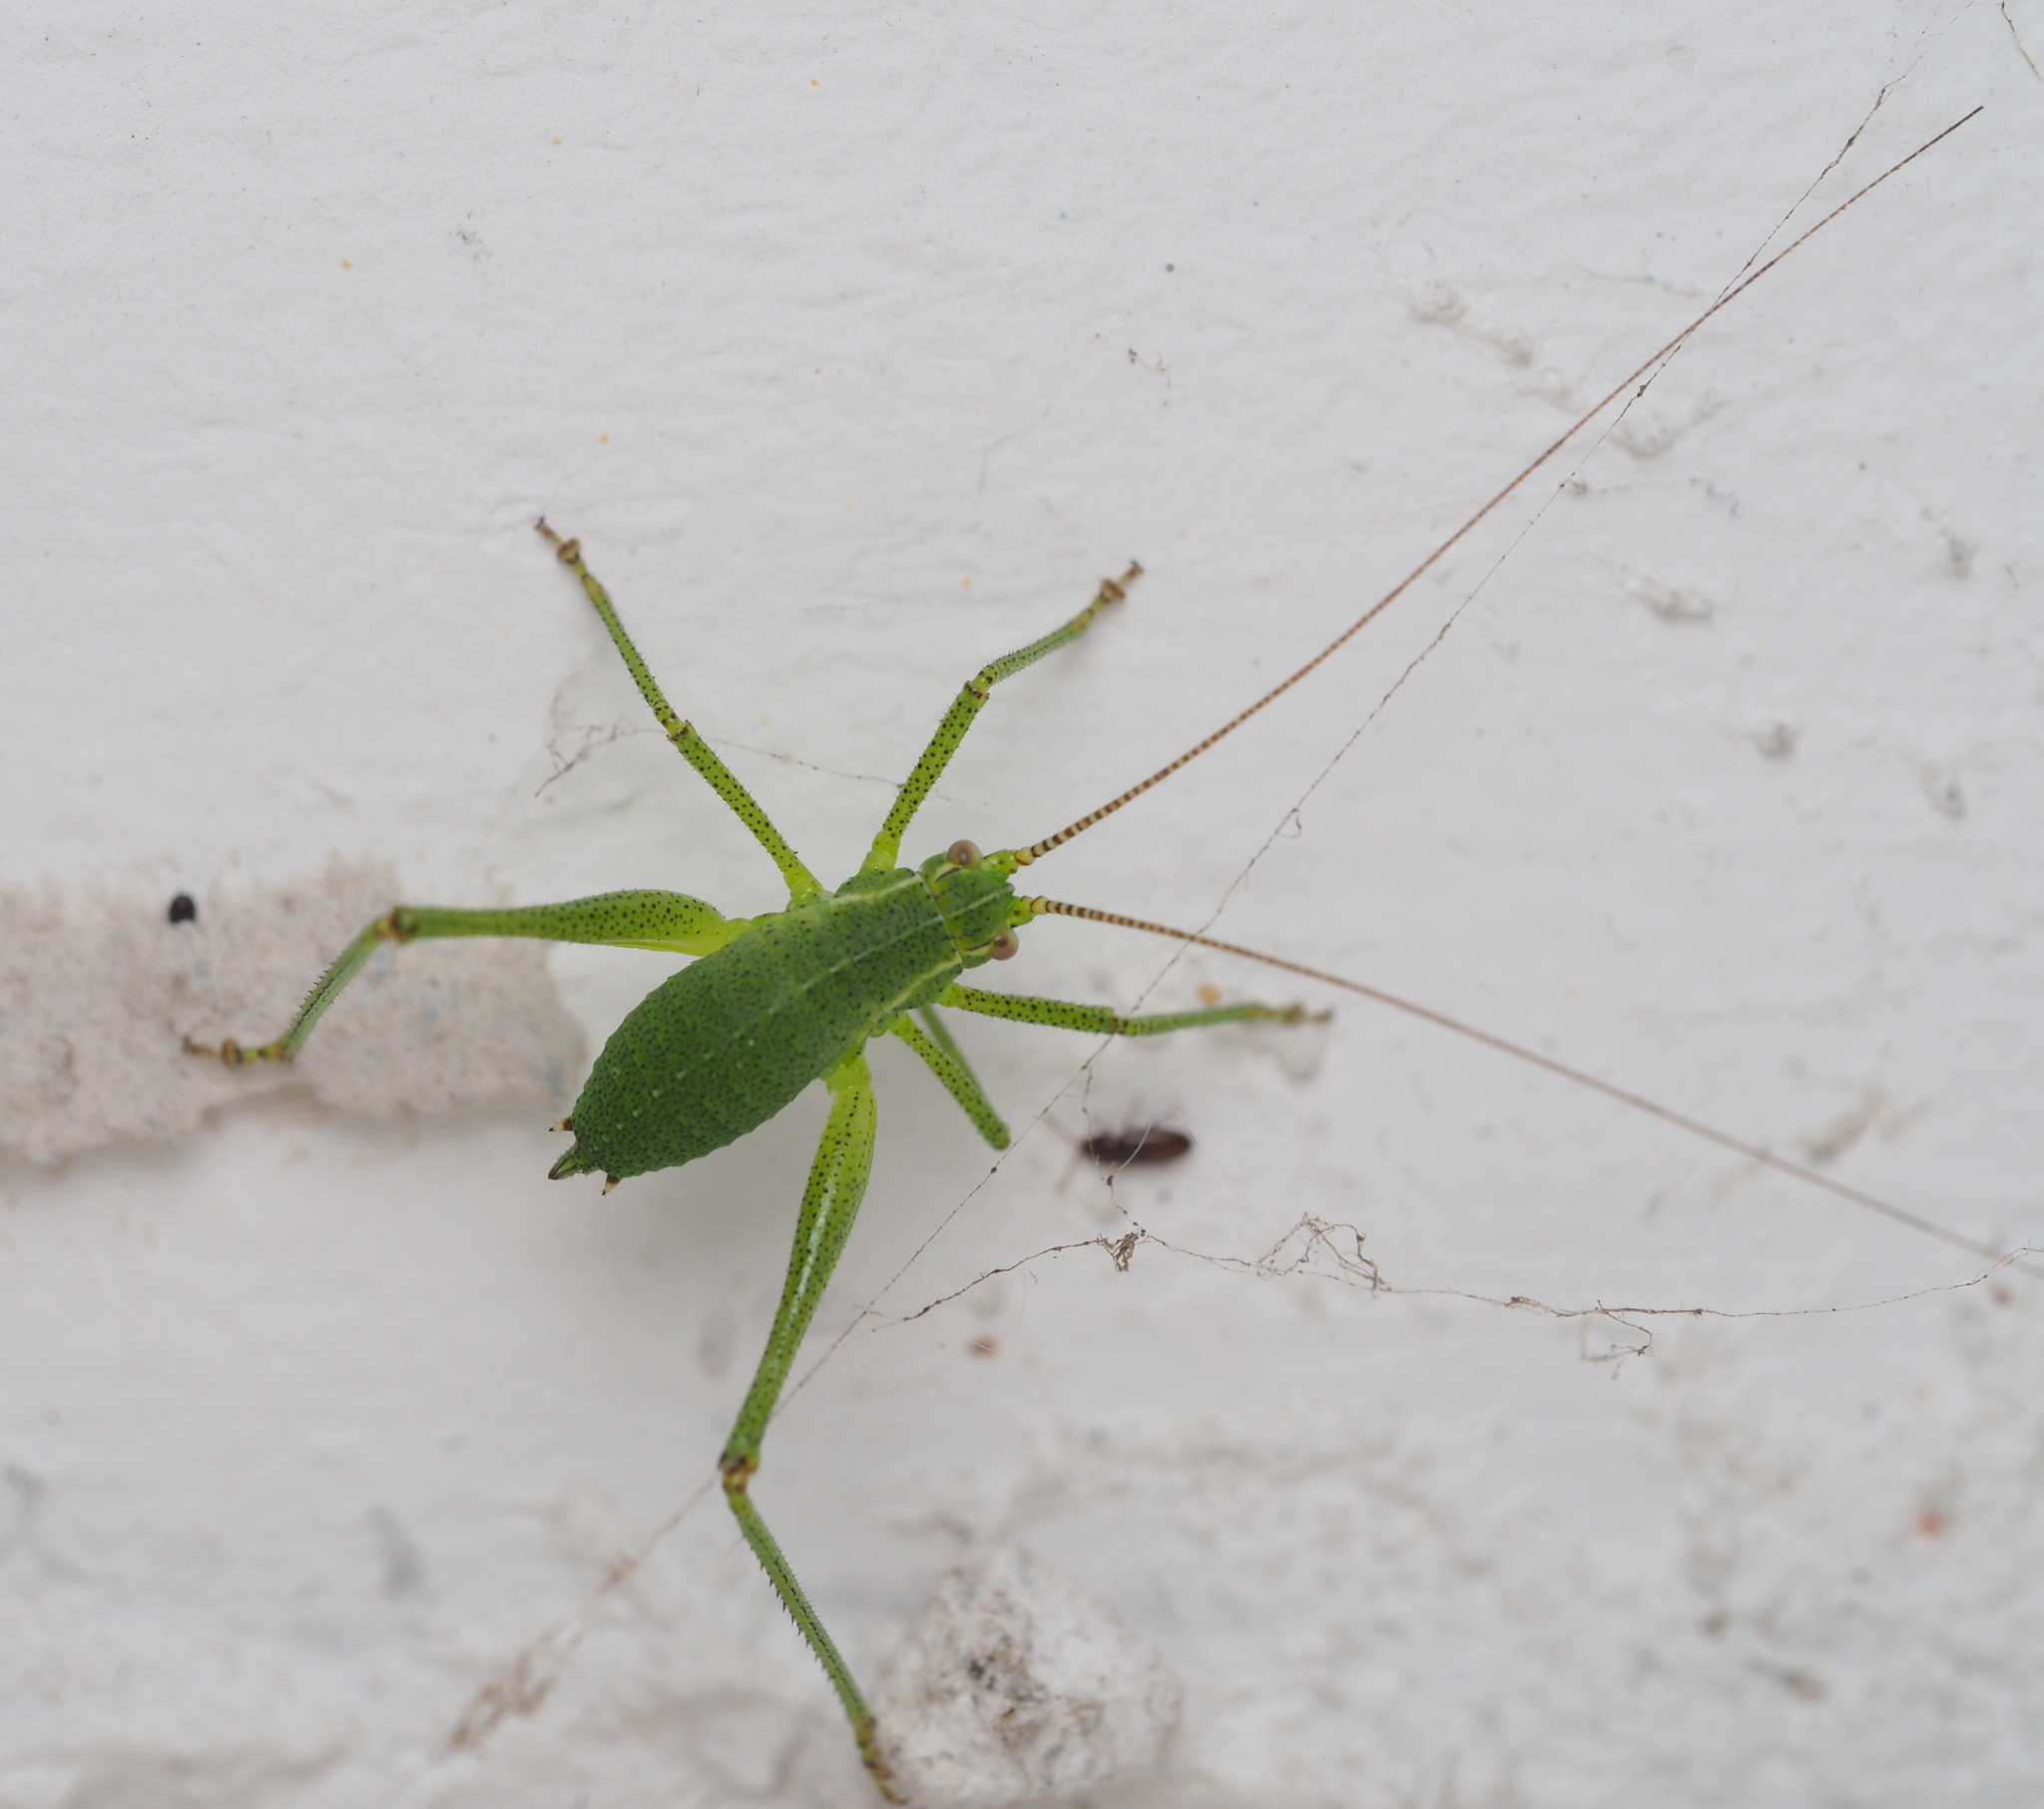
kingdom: Animalia
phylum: Arthropoda
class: Insecta
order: Orthoptera
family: Tettigoniidae
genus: Leptophyes
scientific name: Leptophyes punctatissima
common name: Speckled bush-cricket
